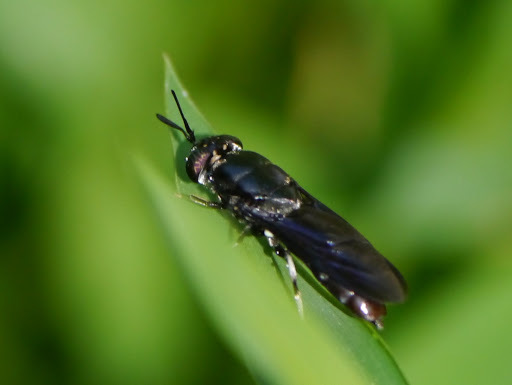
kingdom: Animalia
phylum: Arthropoda
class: Insecta
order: Diptera
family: Stratiomyidae
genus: Hermetia
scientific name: Hermetia illucens
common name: Black soldier fly
